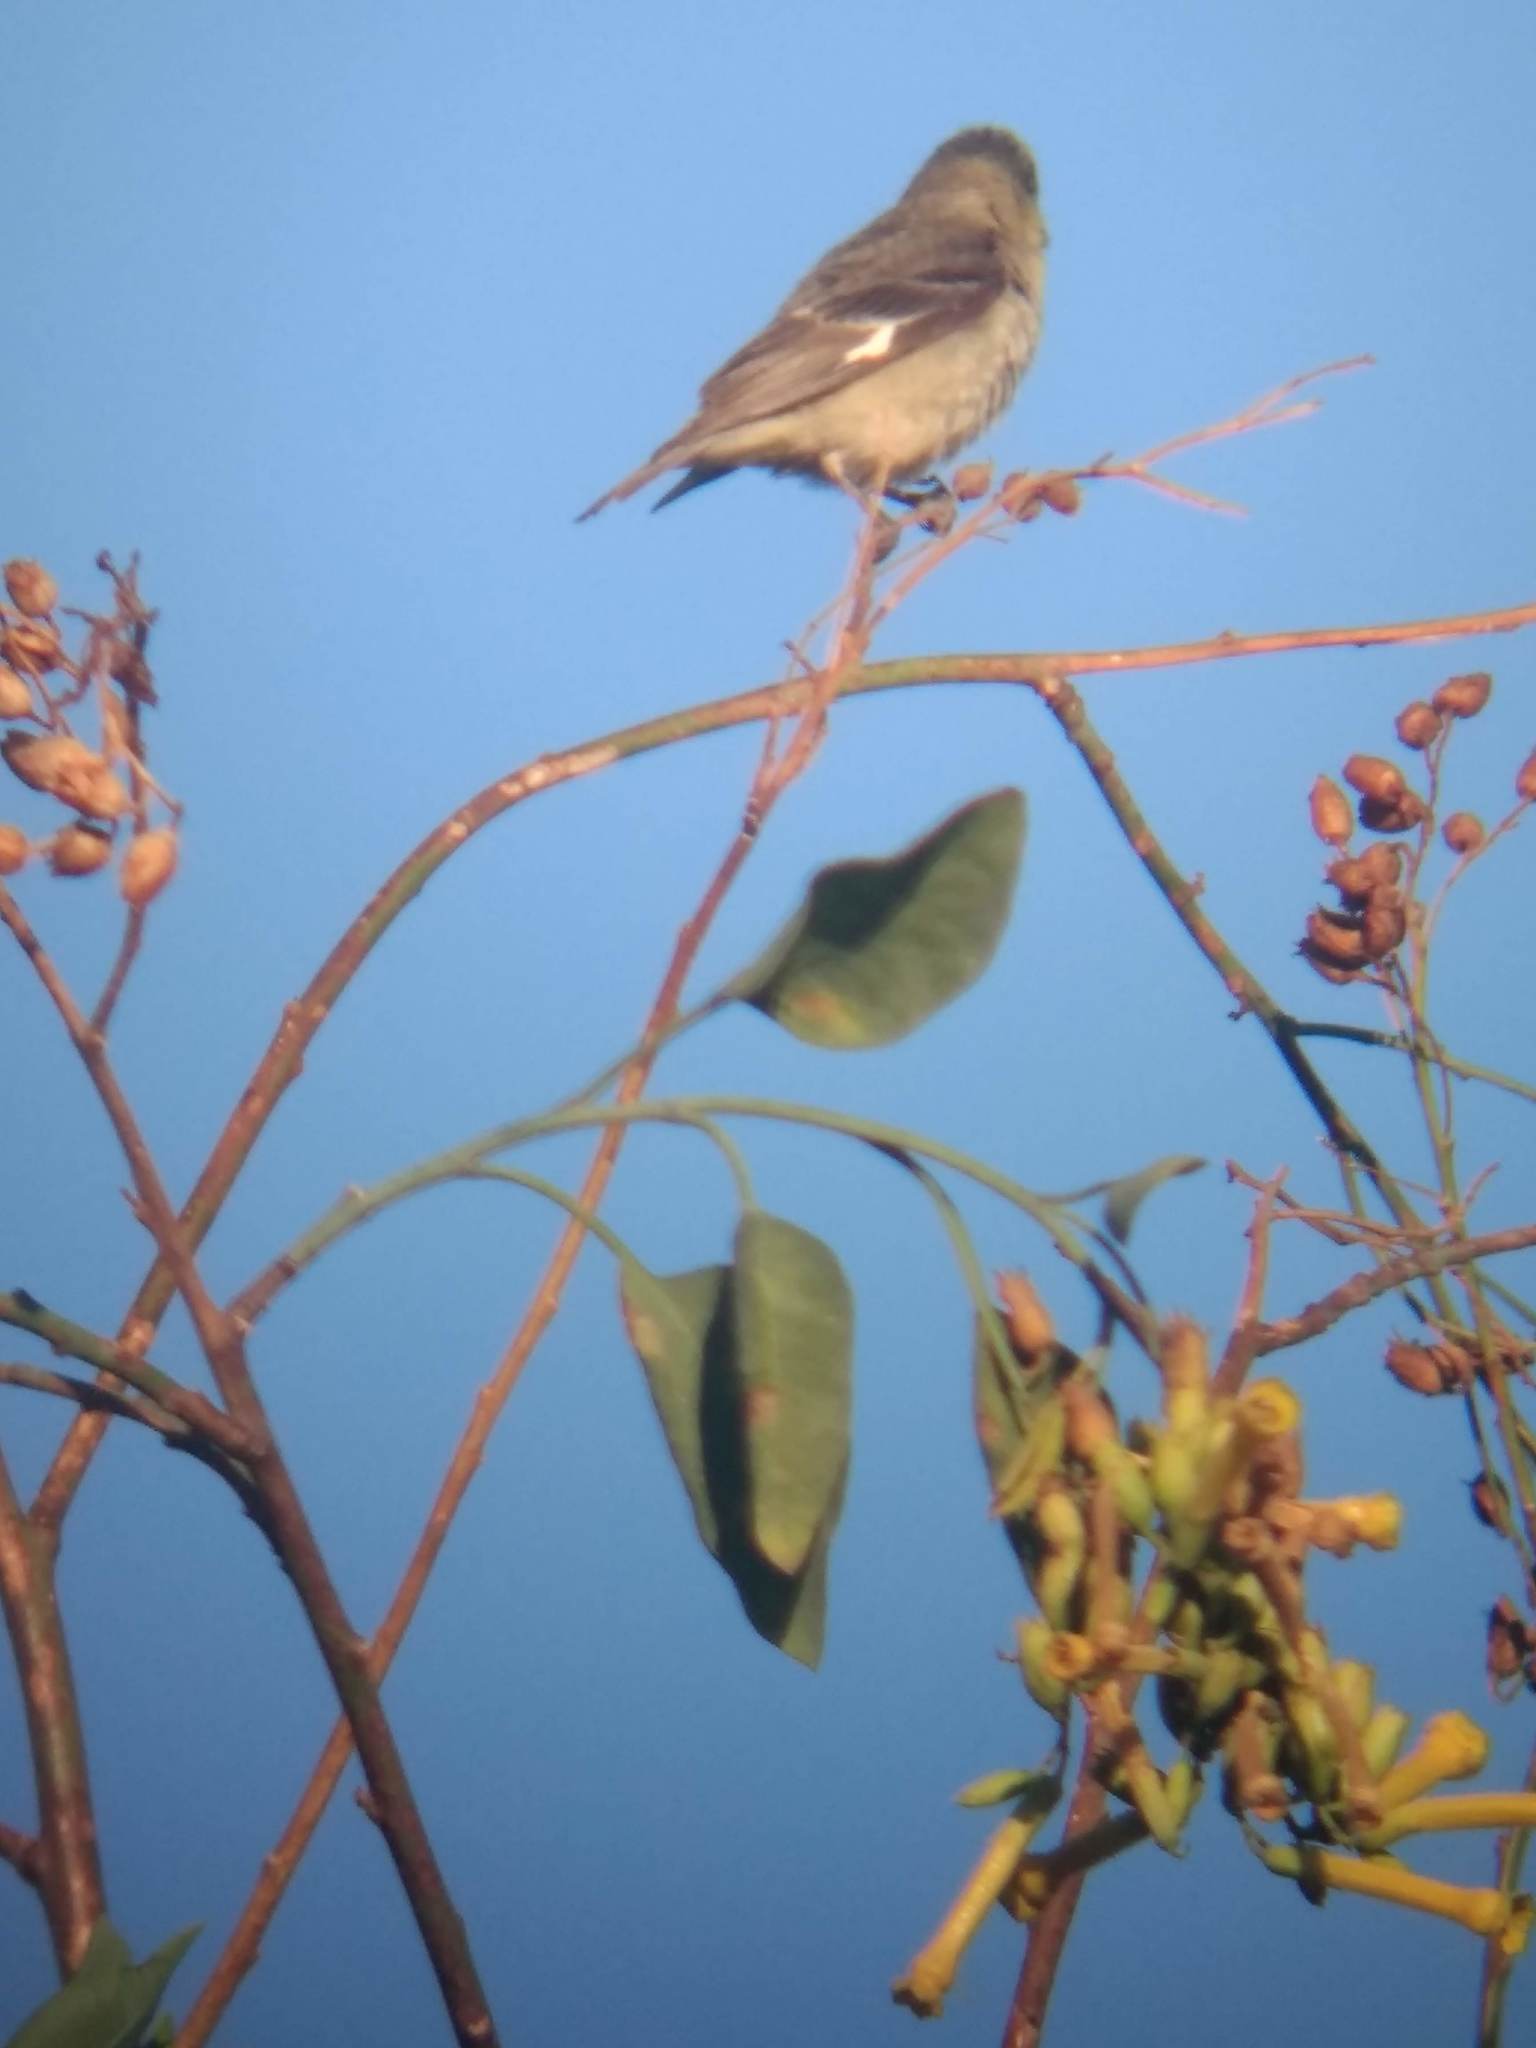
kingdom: Animalia
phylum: Chordata
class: Aves
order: Passeriformes
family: Fringillidae
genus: Spinus
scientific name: Spinus psaltria
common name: Lesser goldfinch
